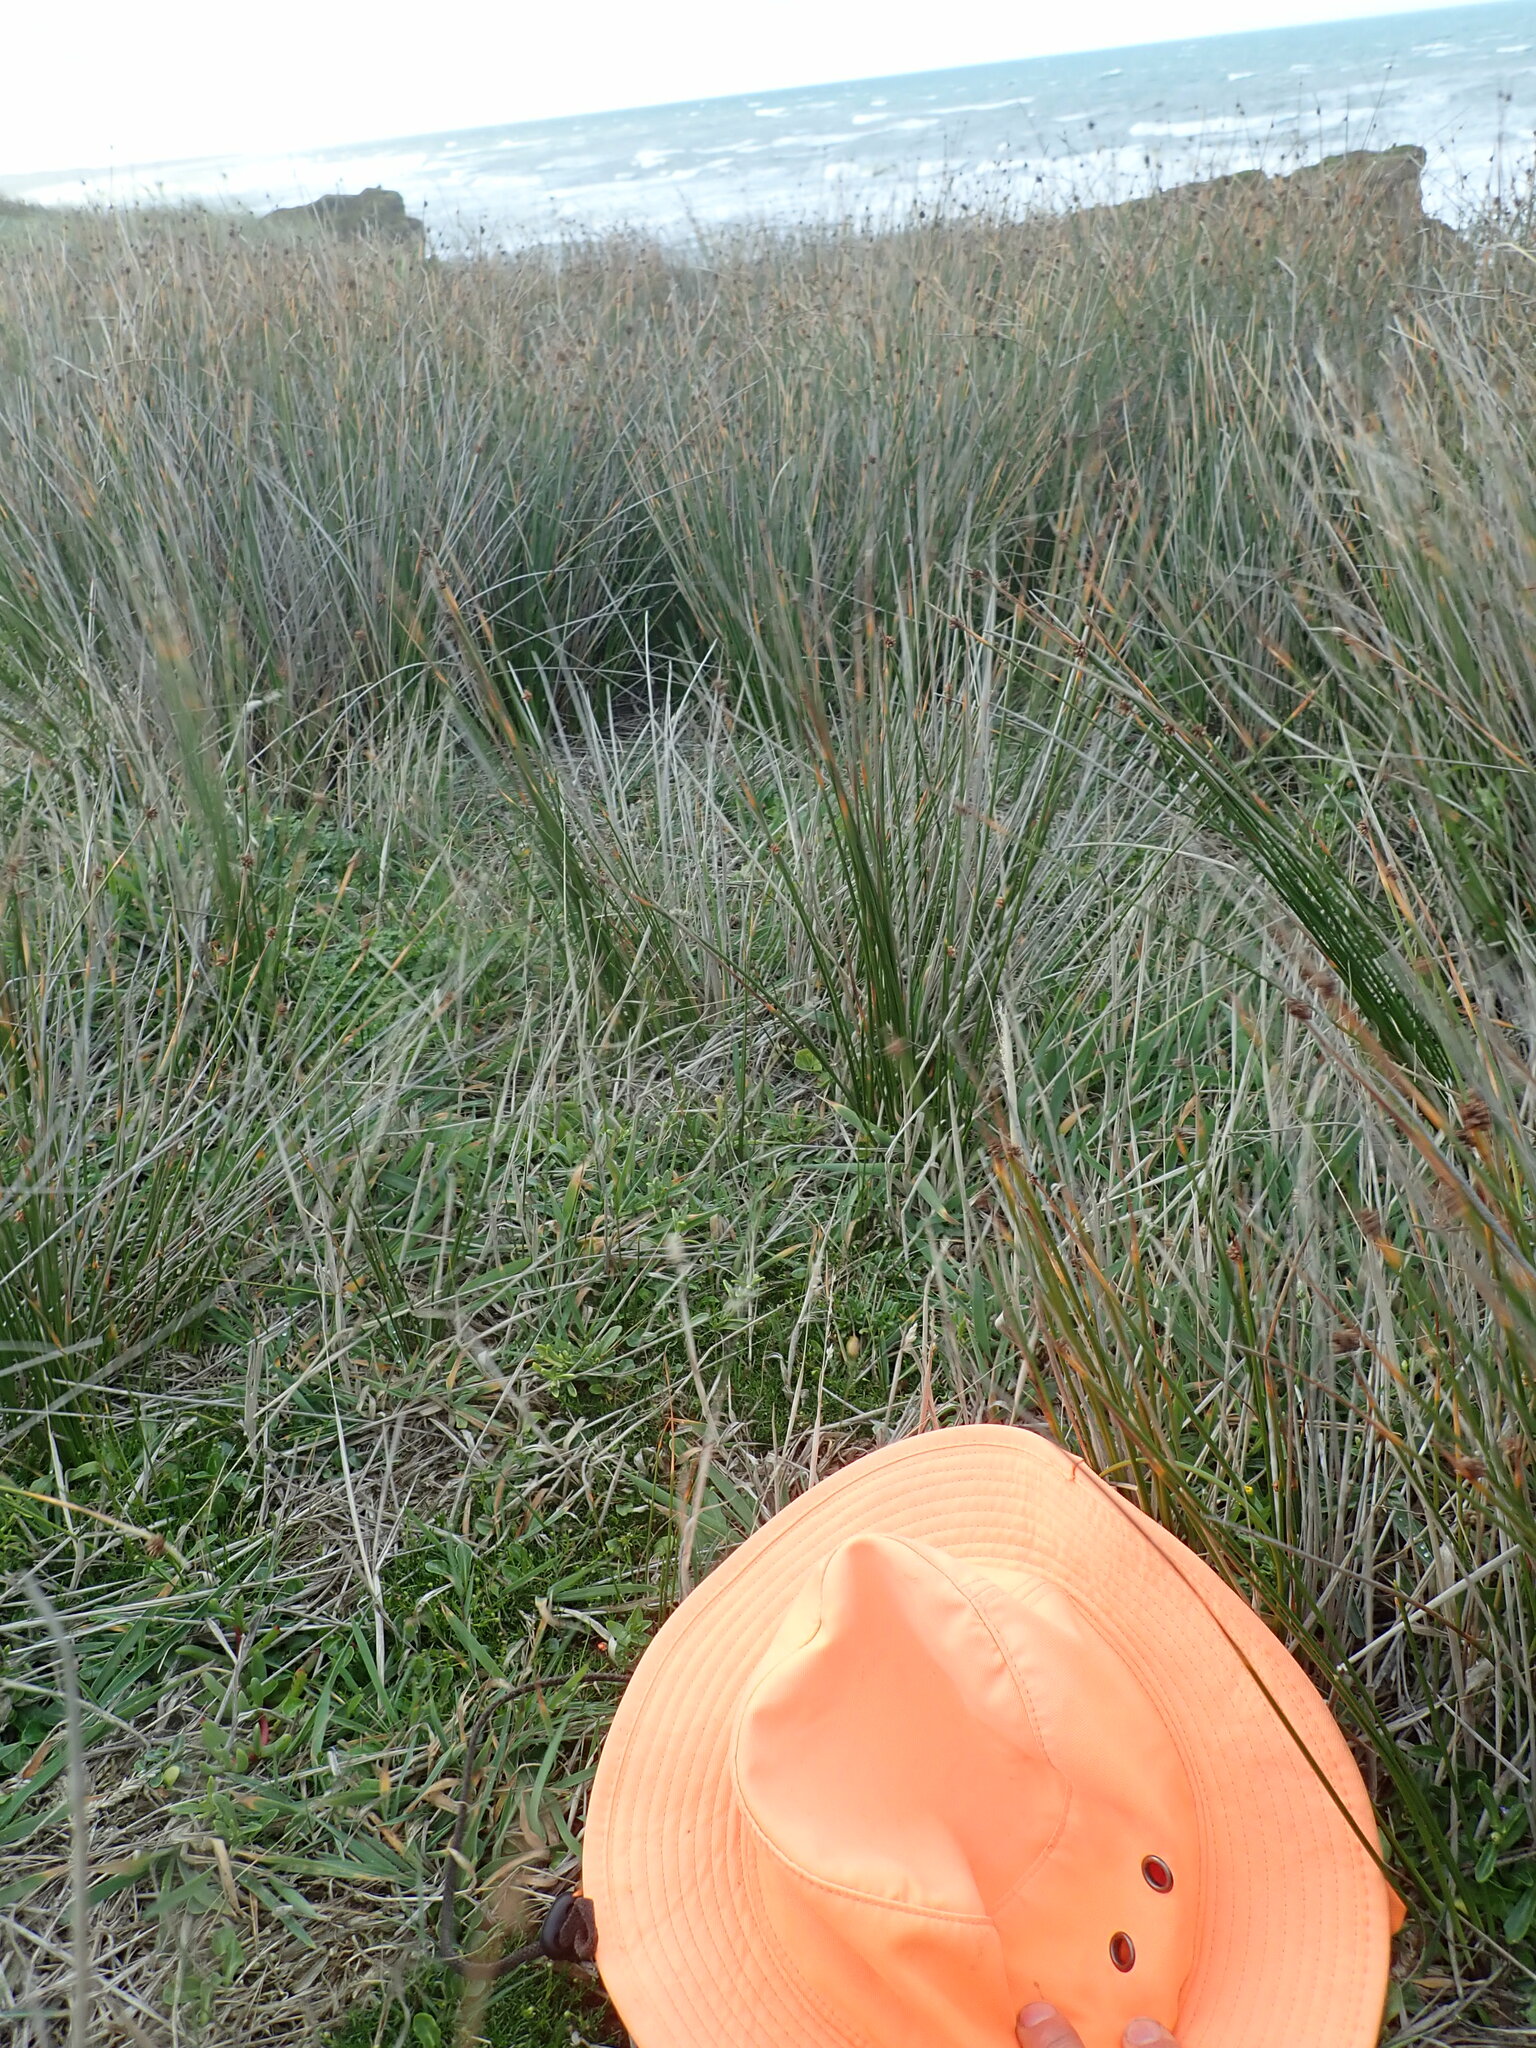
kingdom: Plantae
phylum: Tracheophyta
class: Magnoliopsida
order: Ericales
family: Primulaceae
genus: Lysimachia
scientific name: Lysimachia arvensis
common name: Scarlet pimpernel
